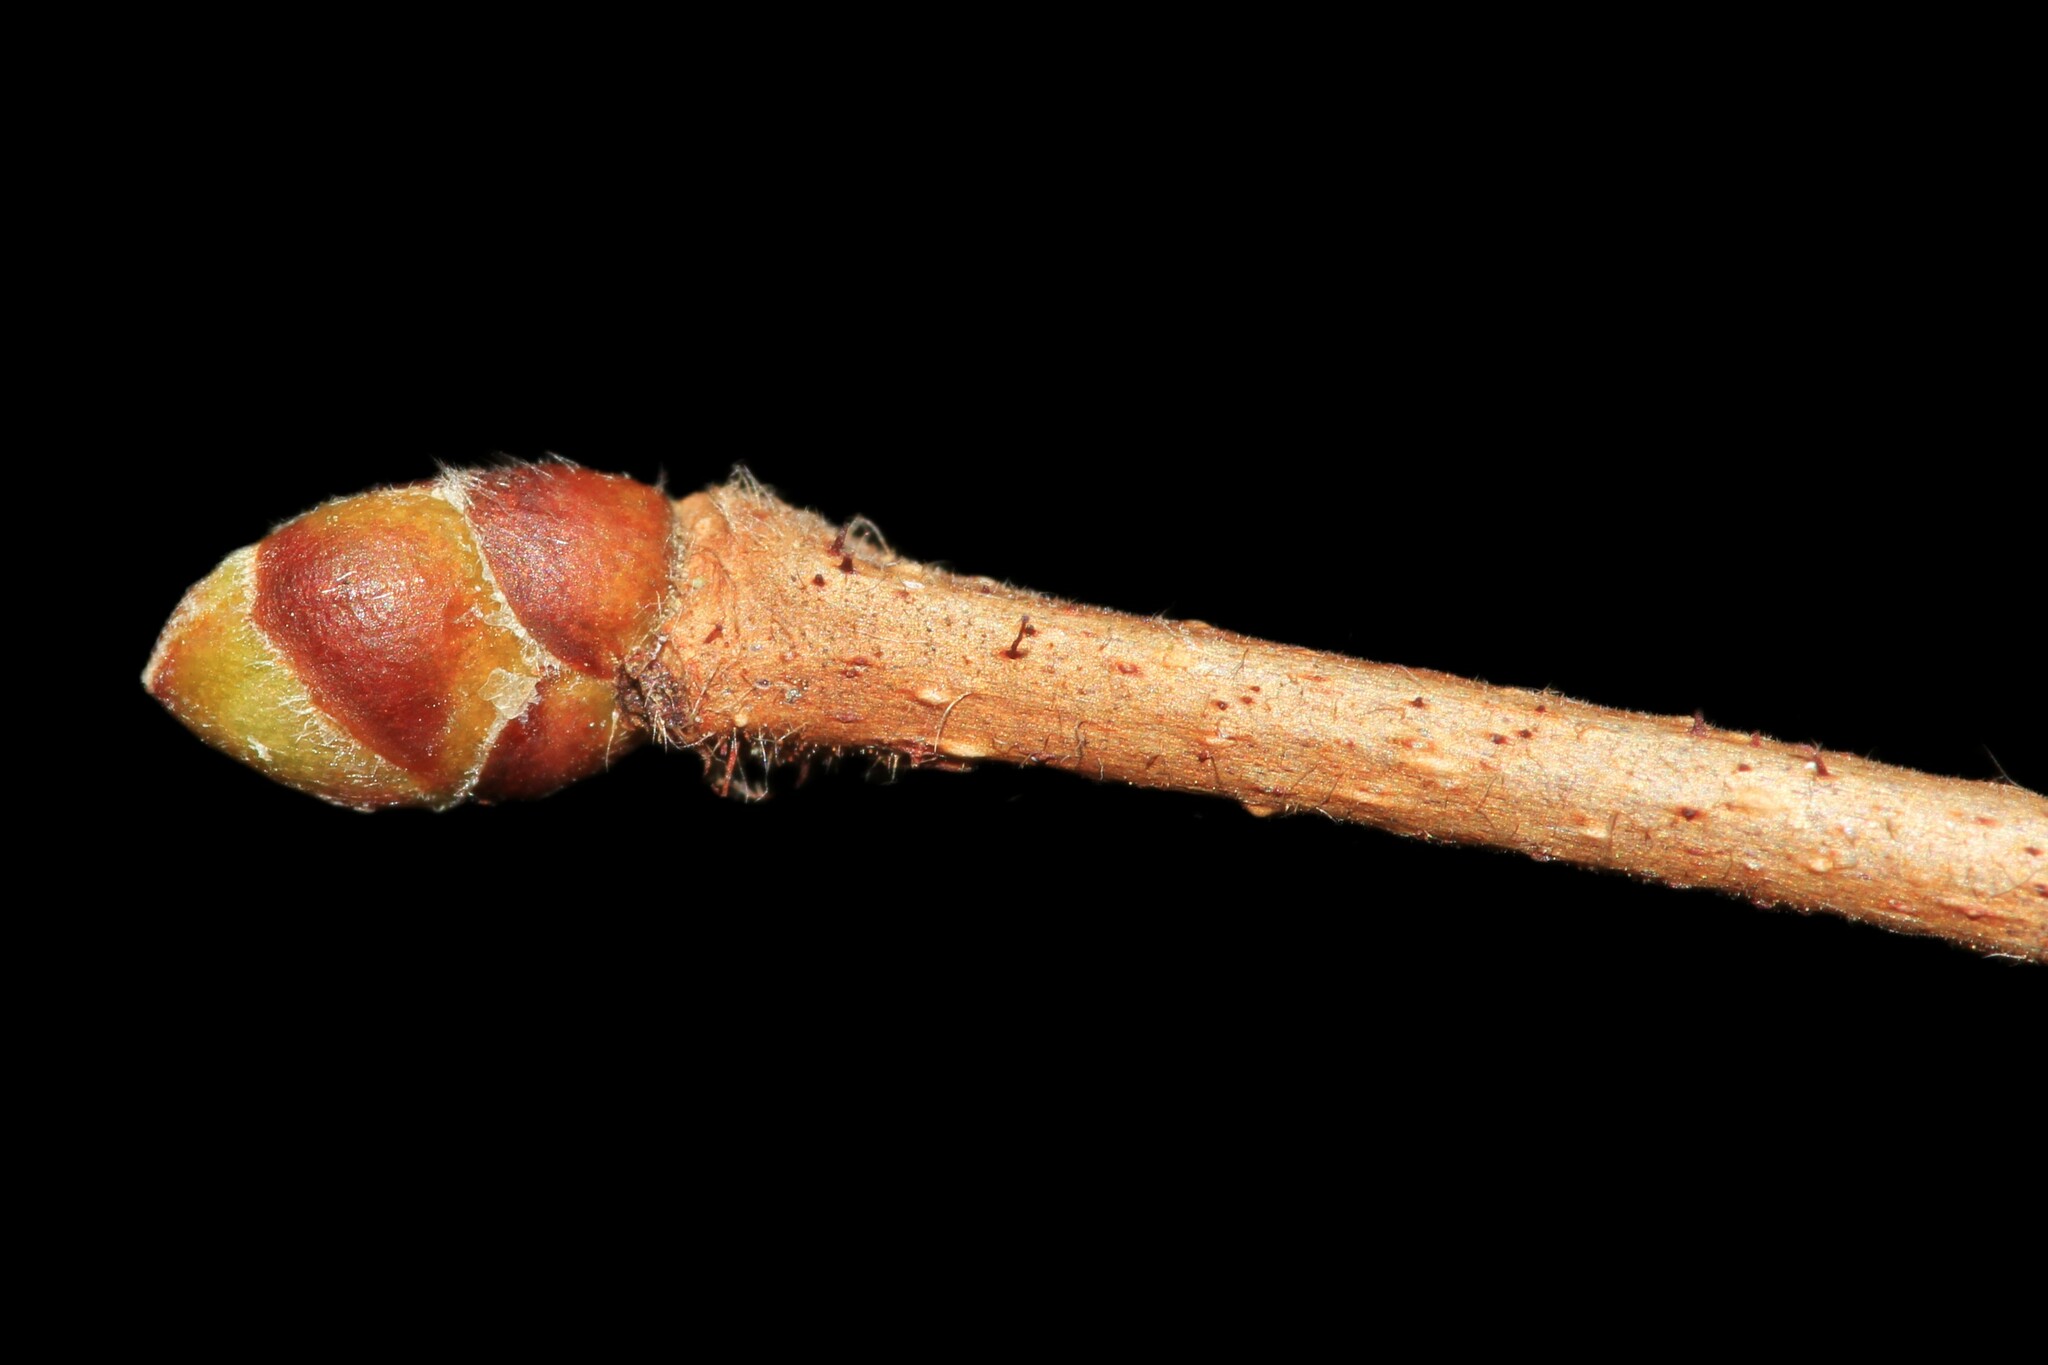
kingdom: Plantae
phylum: Tracheophyta
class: Magnoliopsida
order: Fagales
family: Betulaceae
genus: Corylus
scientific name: Corylus americana
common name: American hazel
